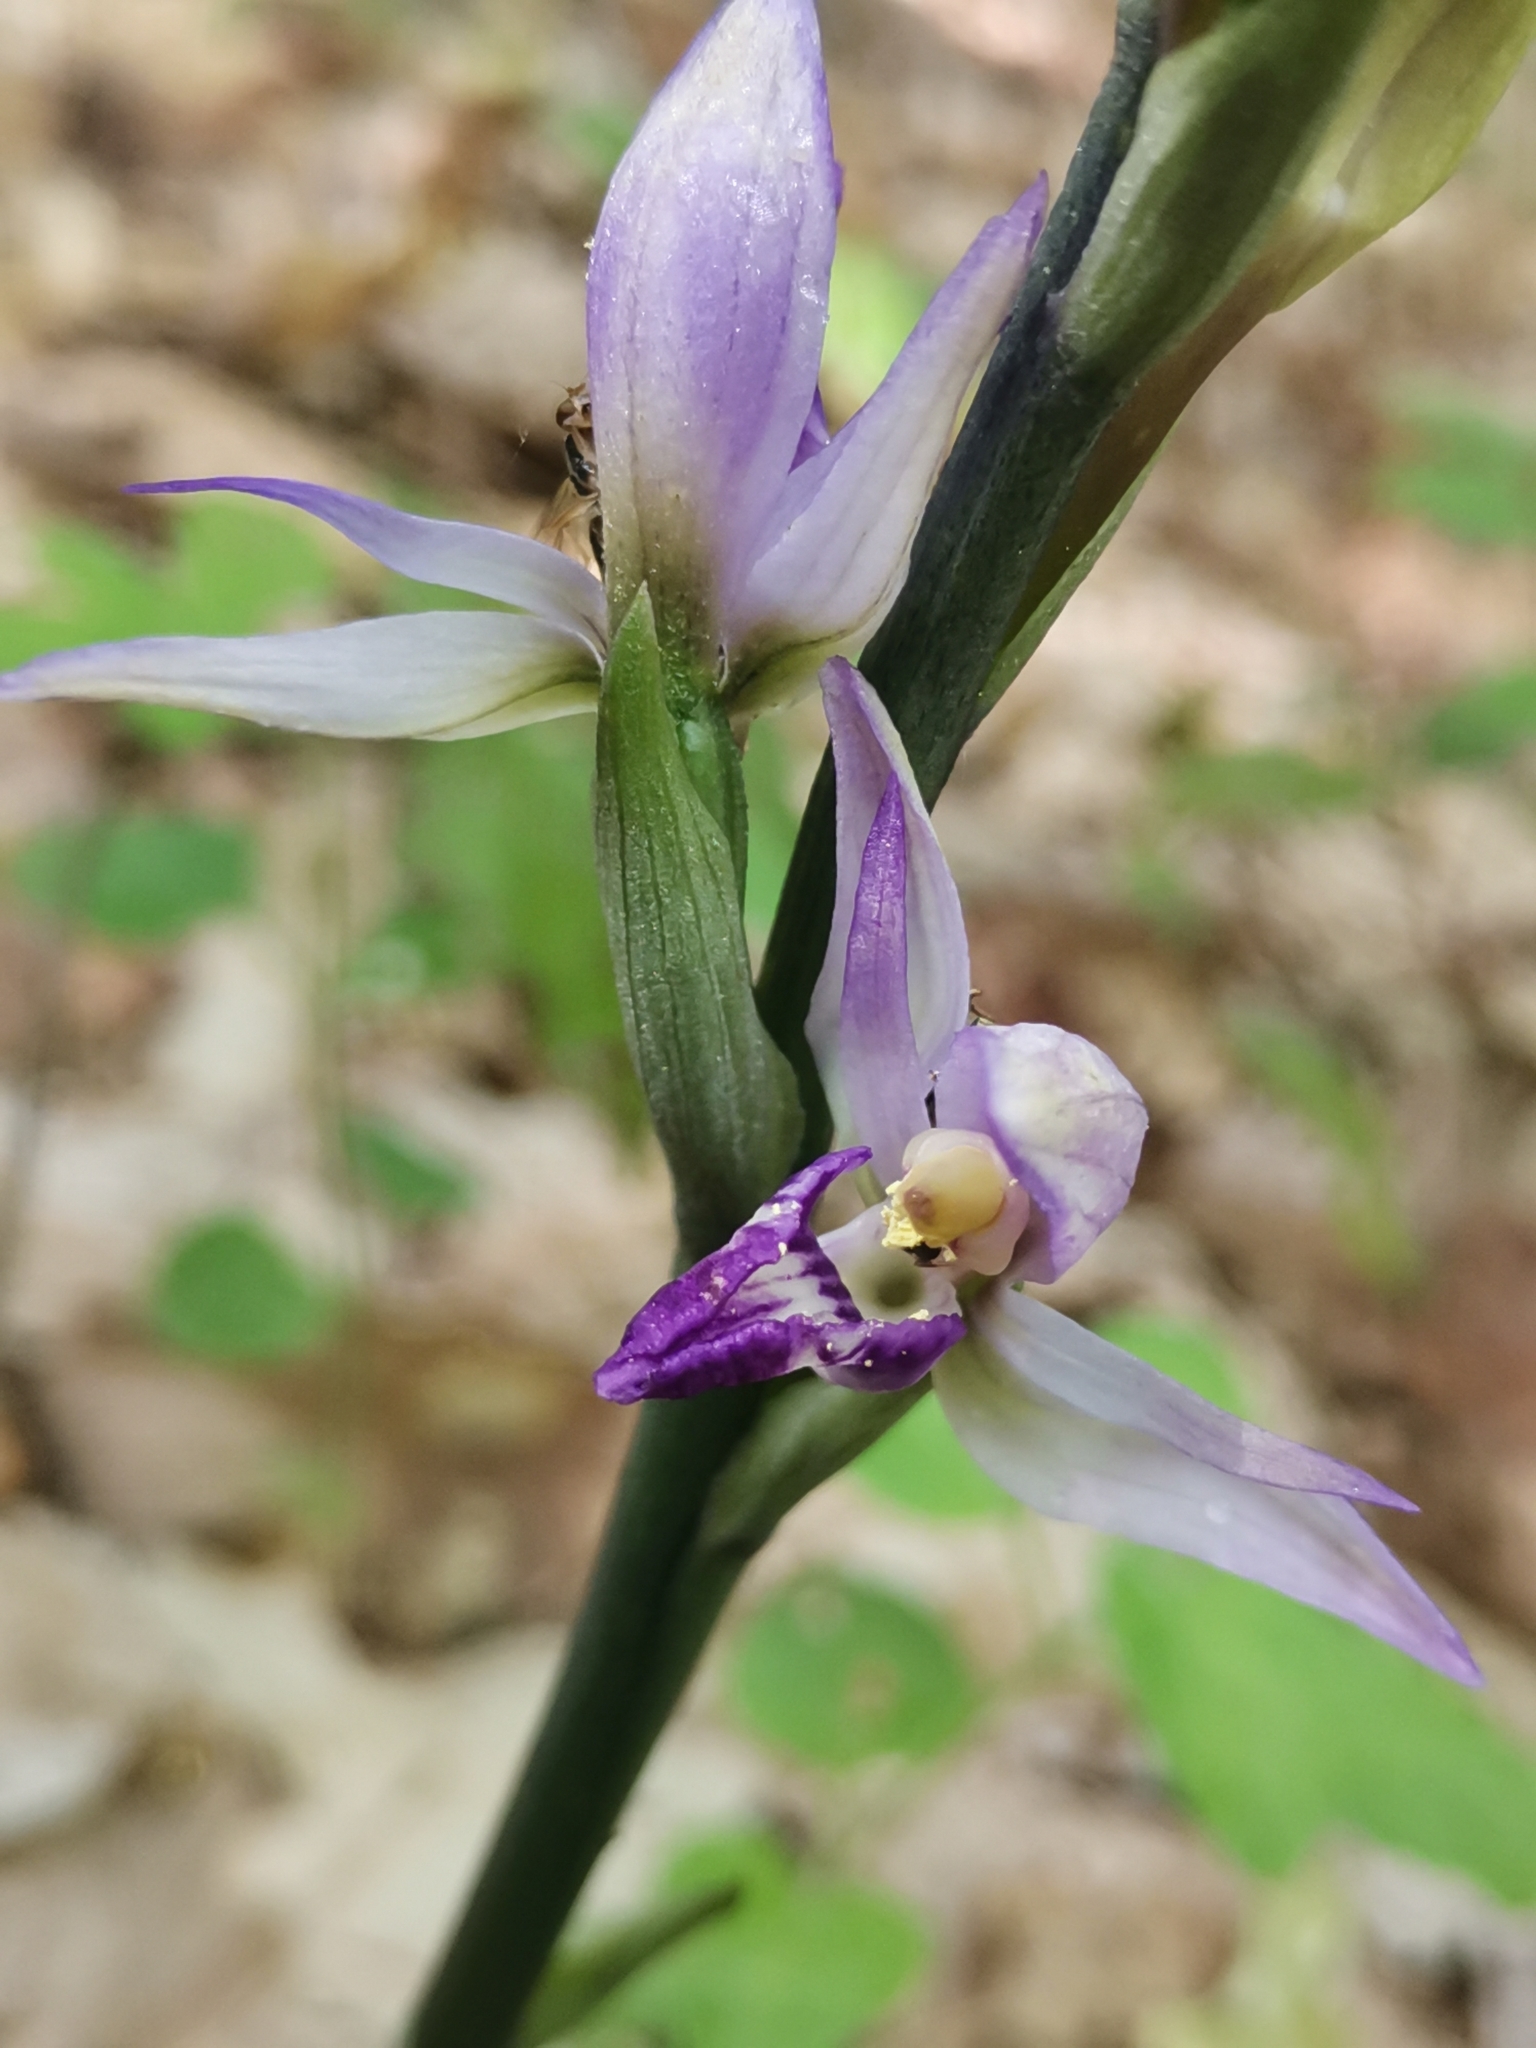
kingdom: Plantae
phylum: Tracheophyta
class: Liliopsida
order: Asparagales
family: Orchidaceae
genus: Limodorum
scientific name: Limodorum abortivum
